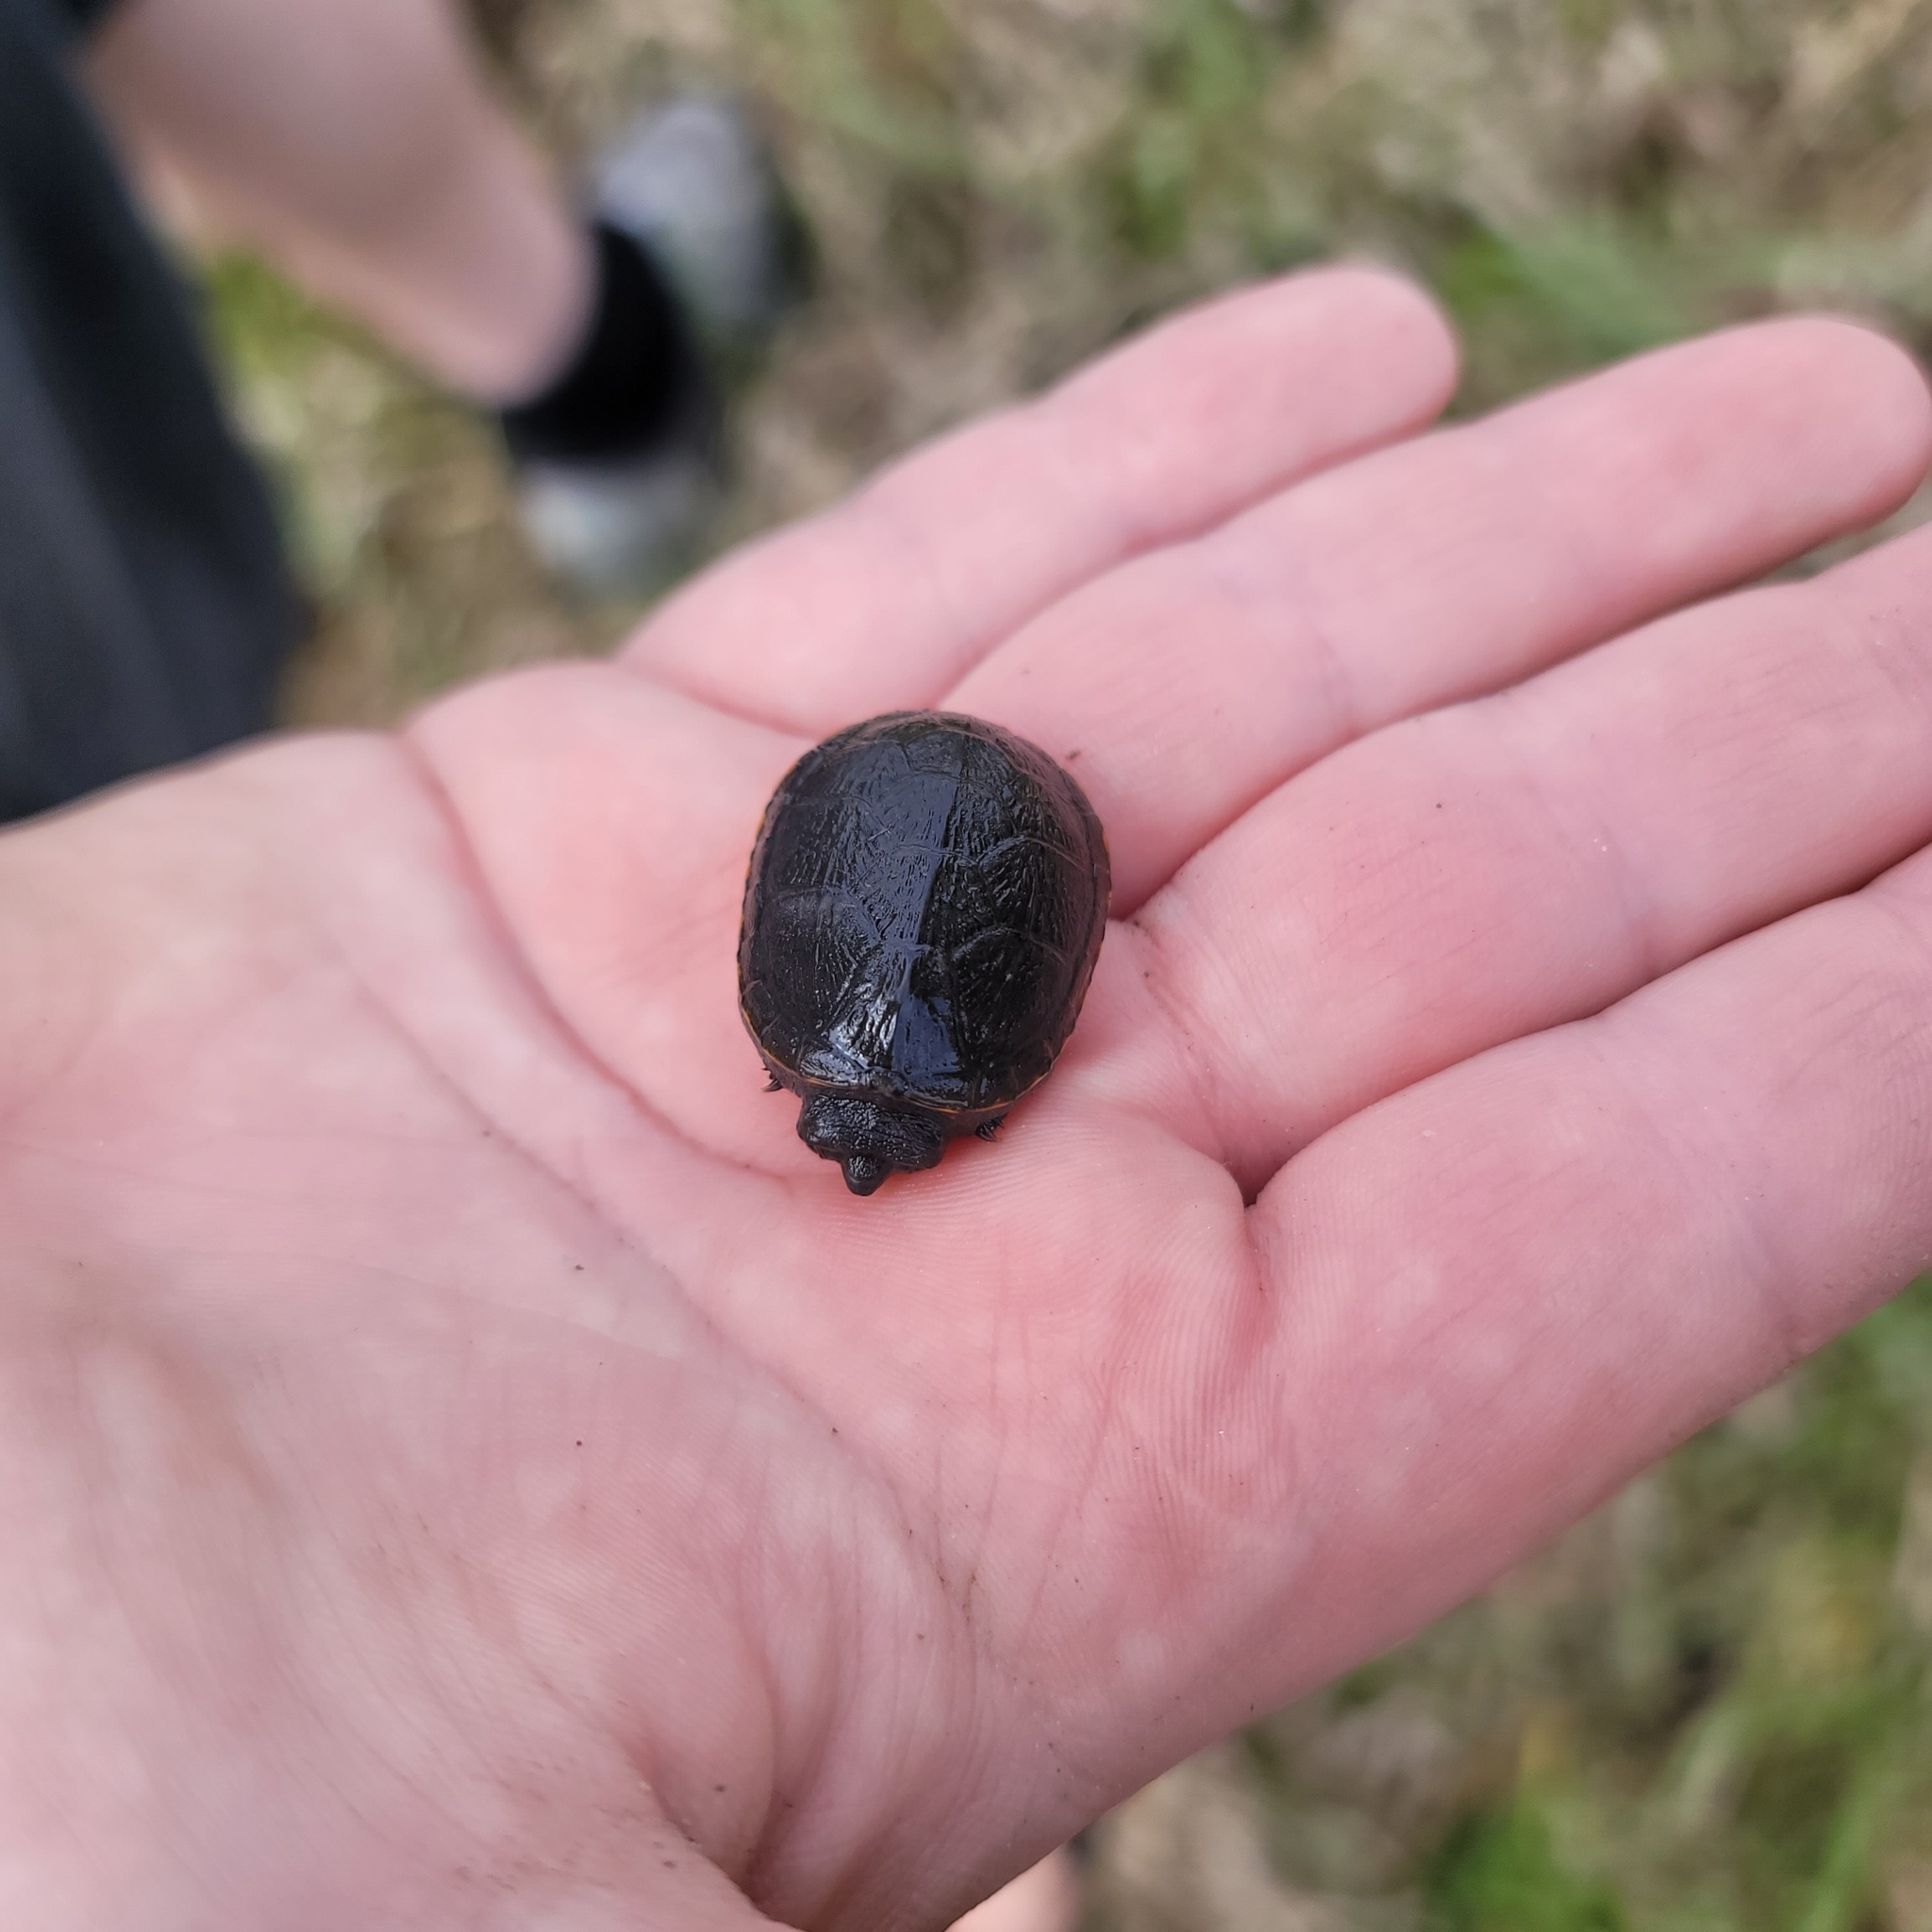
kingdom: Animalia
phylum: Chordata
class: Testudines
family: Kinosternidae
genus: Kinosternon
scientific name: Kinosternon subrubrum
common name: Eastern mud turtle
